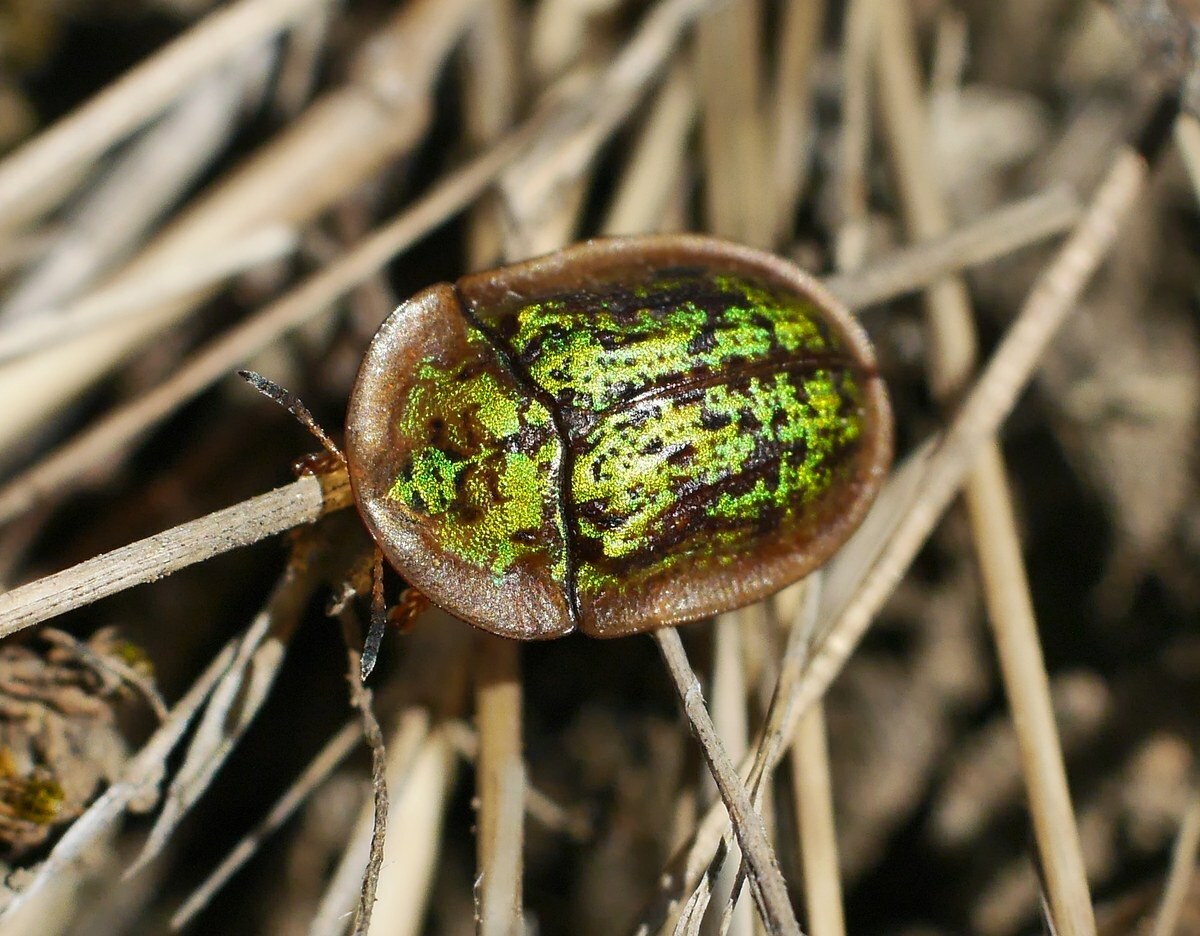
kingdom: Animalia
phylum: Arthropoda
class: Insecta
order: Coleoptera
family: Chrysomelidae
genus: Cassida
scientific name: Cassida canaliculata
